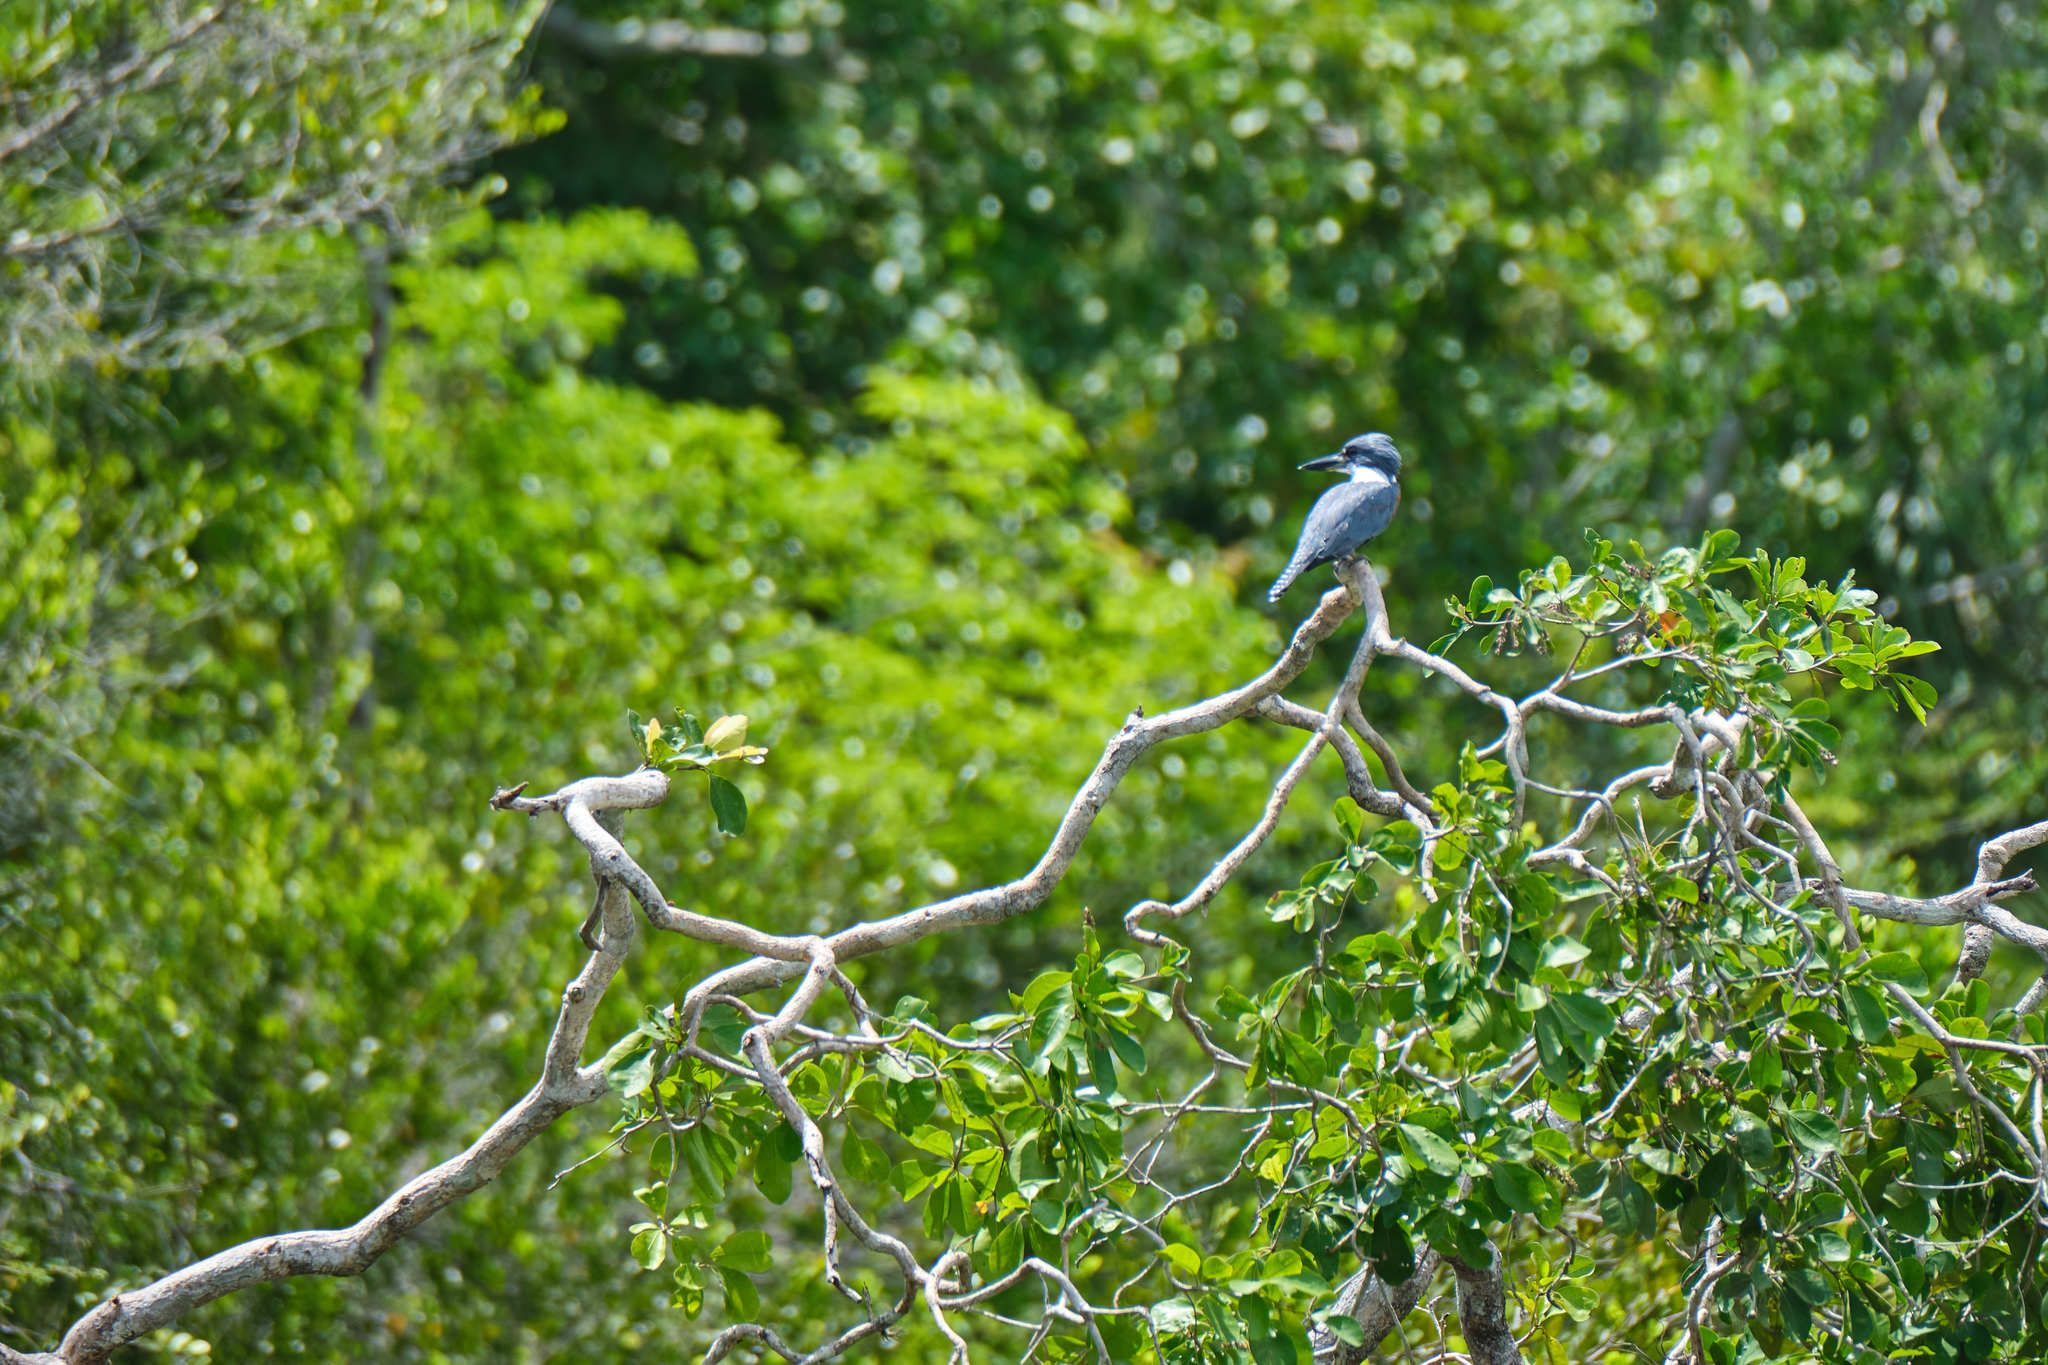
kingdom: Animalia
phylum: Chordata
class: Aves
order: Coraciiformes
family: Alcedinidae
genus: Megaceryle
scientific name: Megaceryle torquata
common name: Ringed kingfisher
